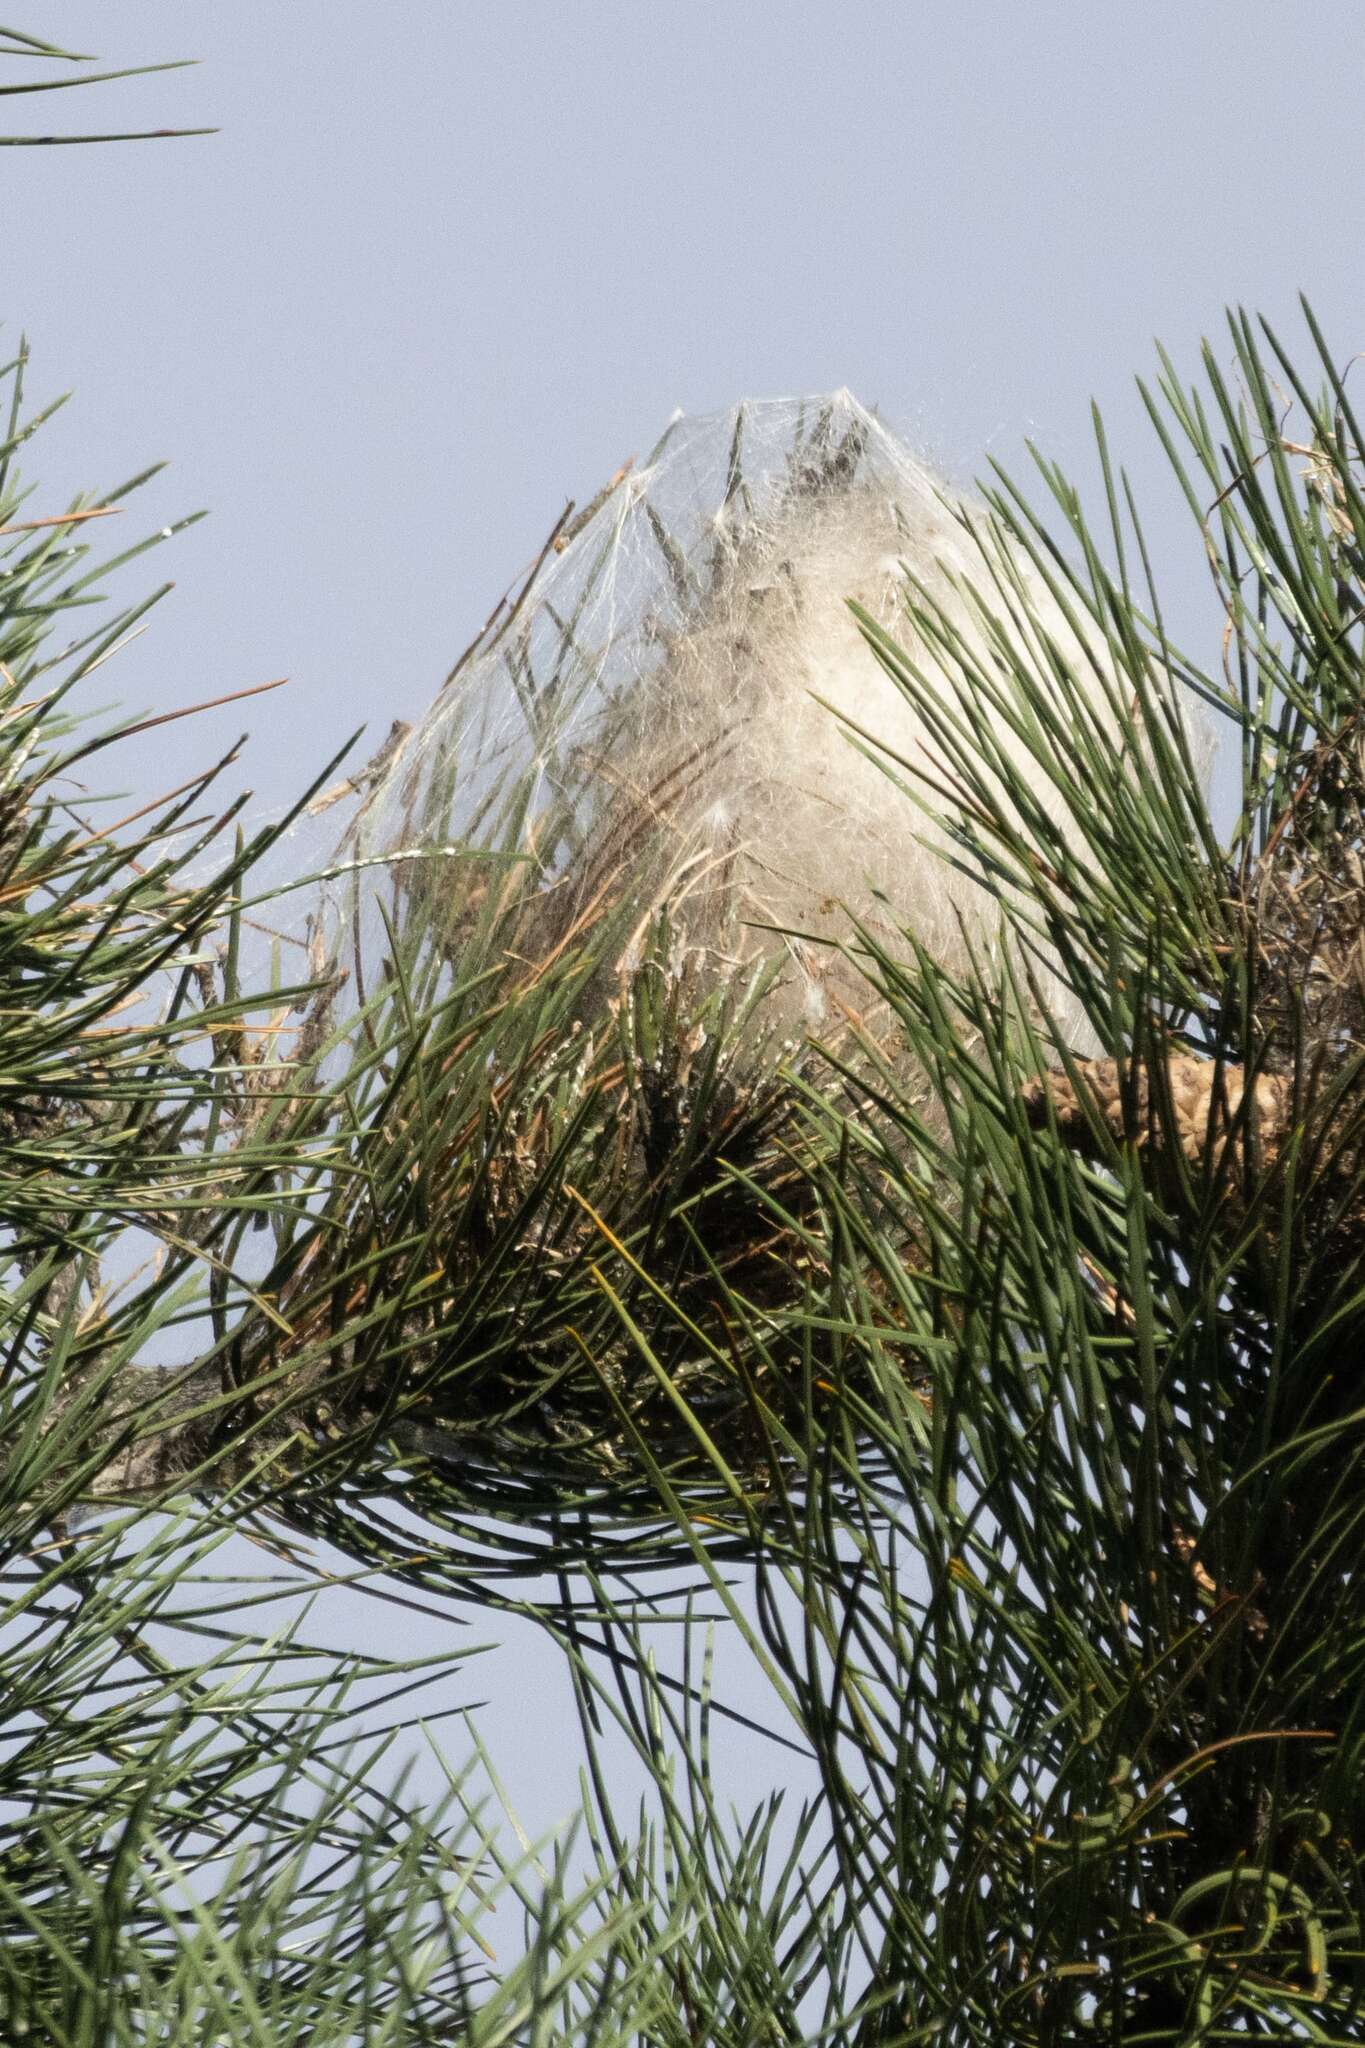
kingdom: Animalia
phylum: Arthropoda
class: Insecta
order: Lepidoptera
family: Notodontidae
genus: Thaumetopoea
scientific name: Thaumetopoea pityocampa
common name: Pine processionary
